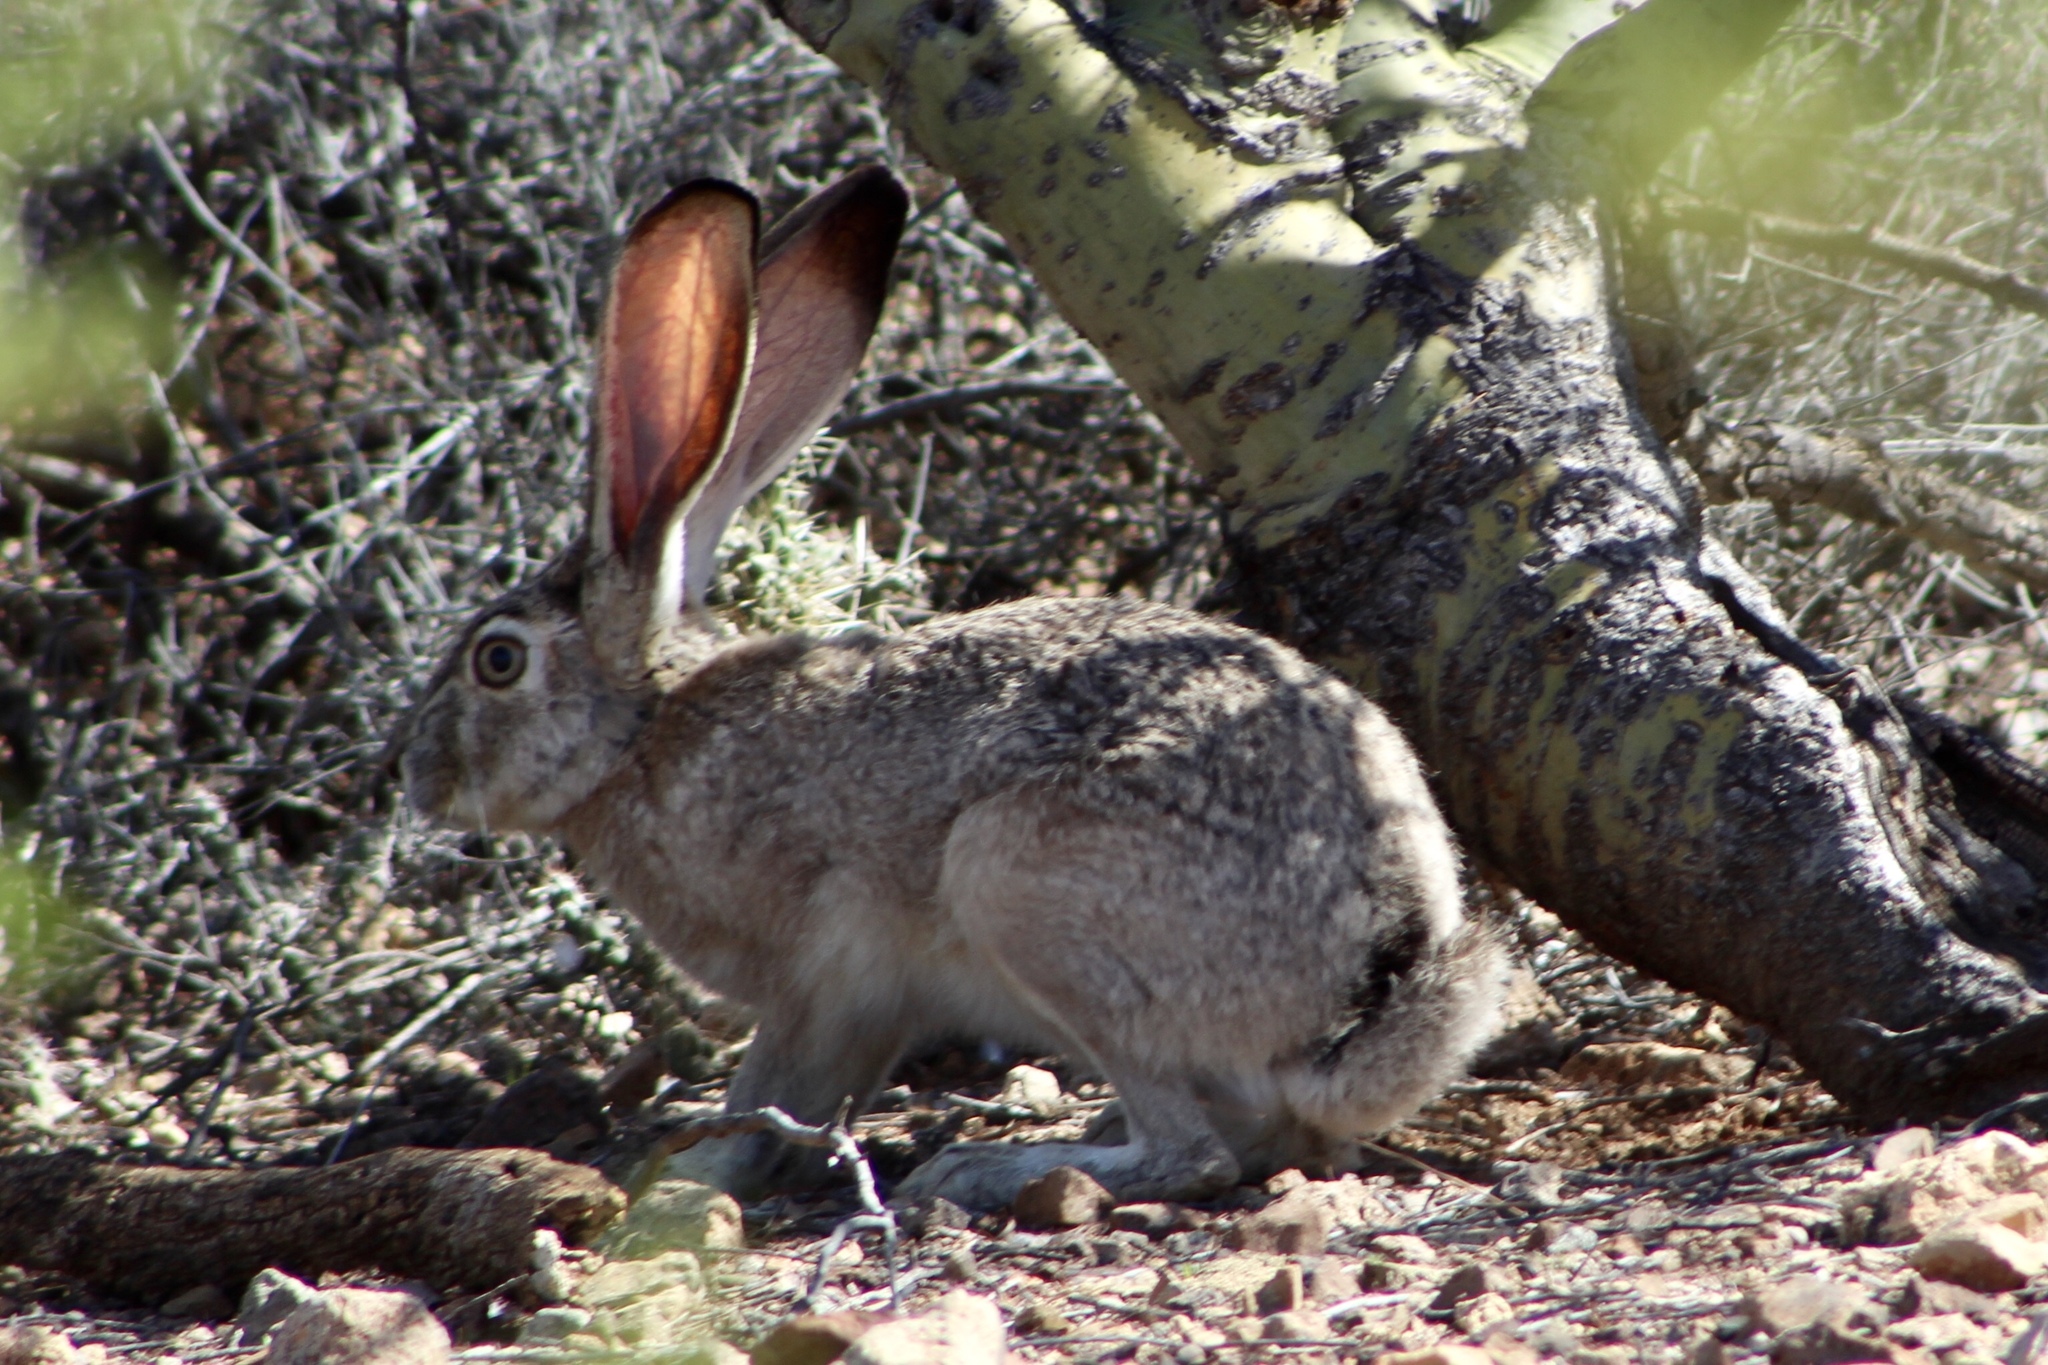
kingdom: Animalia
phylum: Chordata
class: Mammalia
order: Lagomorpha
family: Leporidae
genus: Lepus
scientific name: Lepus californicus
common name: Black-tailed jackrabbit
